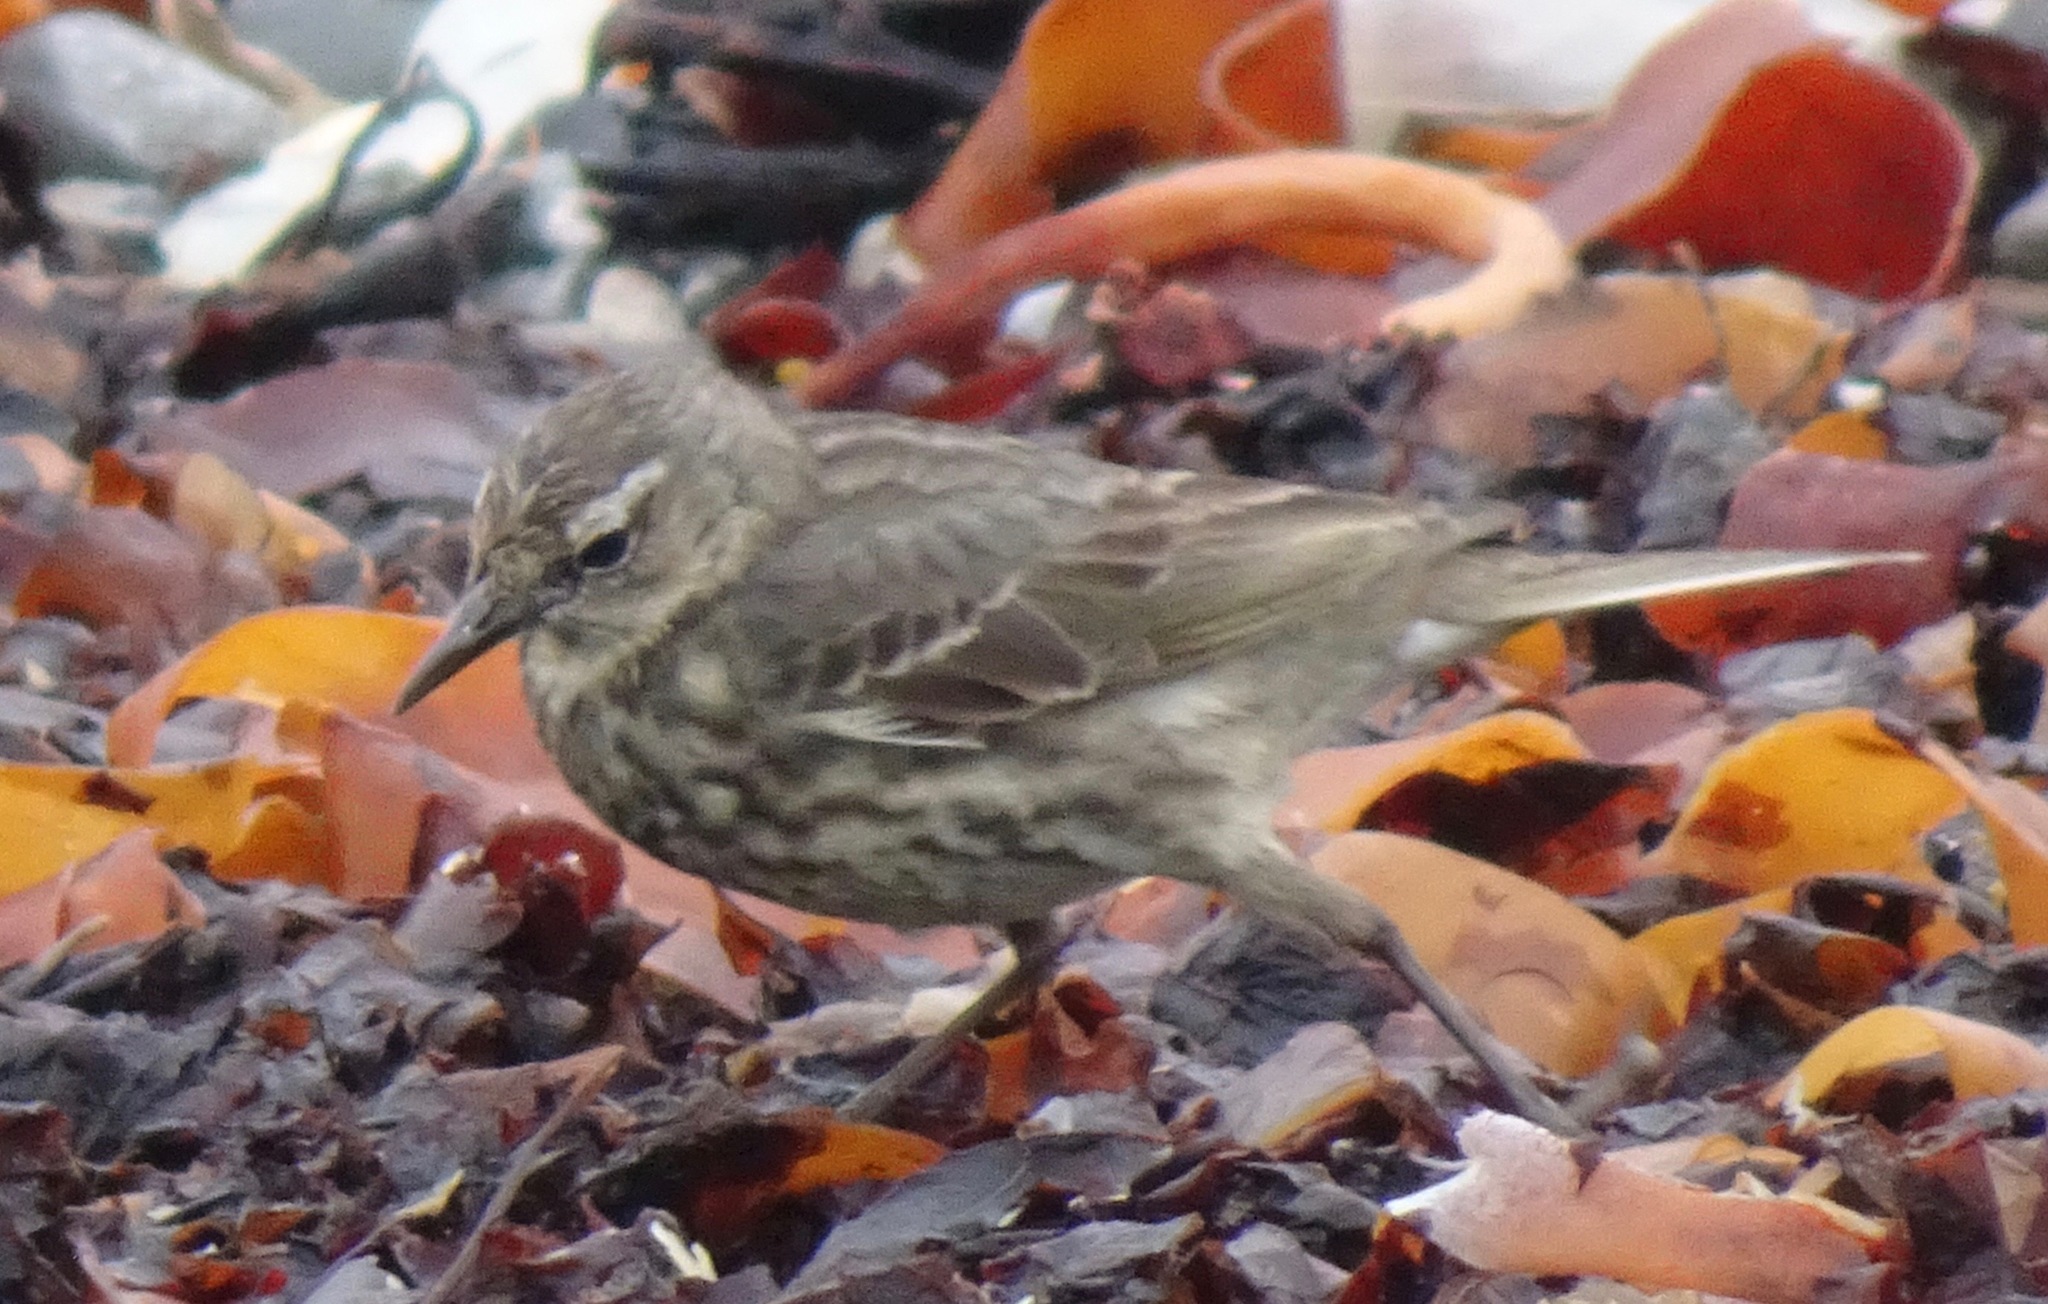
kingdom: Animalia
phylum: Chordata
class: Aves
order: Passeriformes
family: Motacillidae
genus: Anthus
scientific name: Anthus petrosus
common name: Eurasian rock pipit
